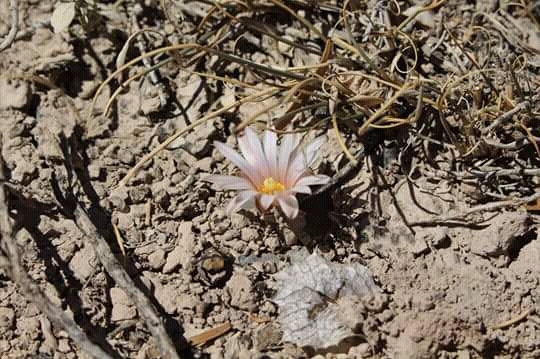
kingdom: Plantae
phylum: Tracheophyta
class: Magnoliopsida
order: Caryophyllales
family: Cactaceae
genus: Lophophora
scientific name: Lophophora diffusa
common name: Peyote
